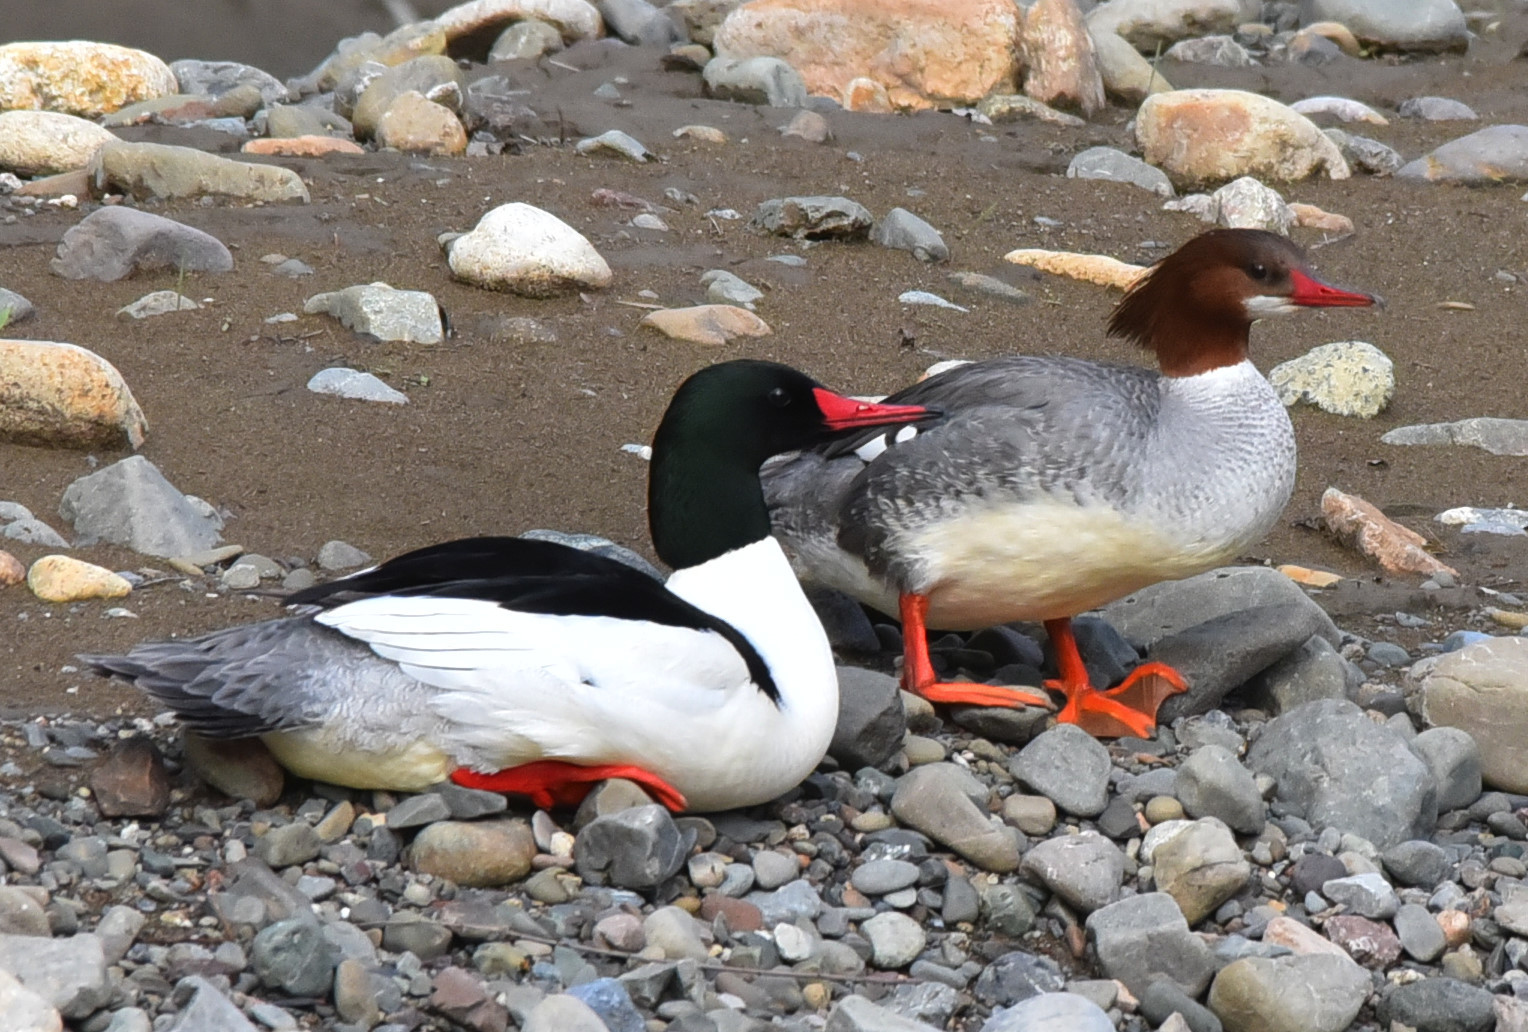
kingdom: Animalia
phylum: Chordata
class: Aves
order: Anseriformes
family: Anatidae
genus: Mergus
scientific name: Mergus merganser
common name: Common merganser
